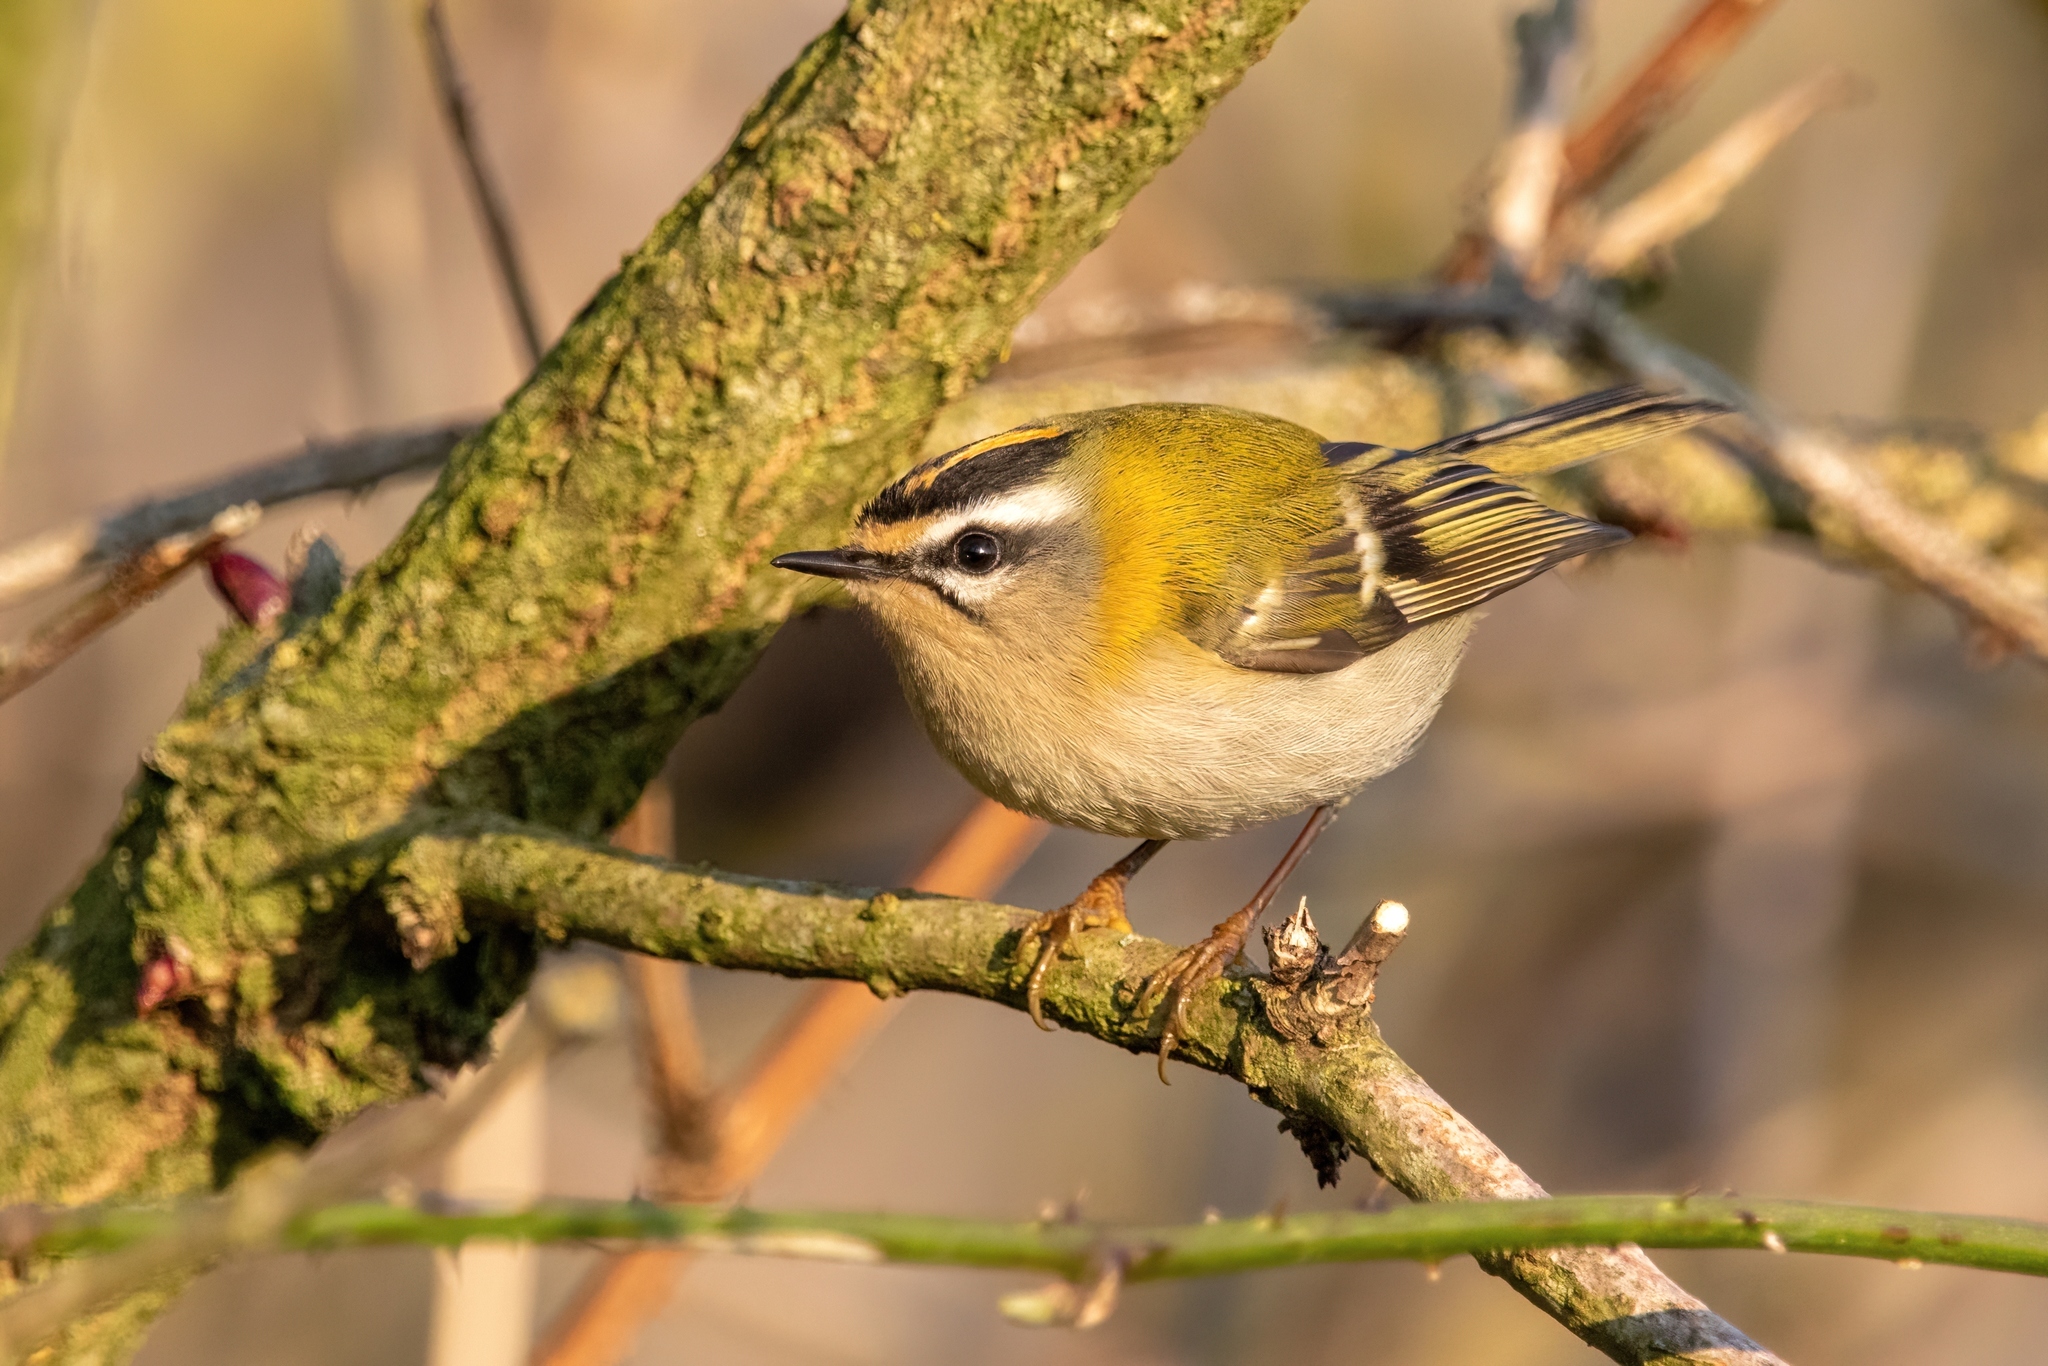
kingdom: Animalia
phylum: Chordata
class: Aves
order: Passeriformes
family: Regulidae
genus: Regulus
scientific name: Regulus ignicapilla
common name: Firecrest
